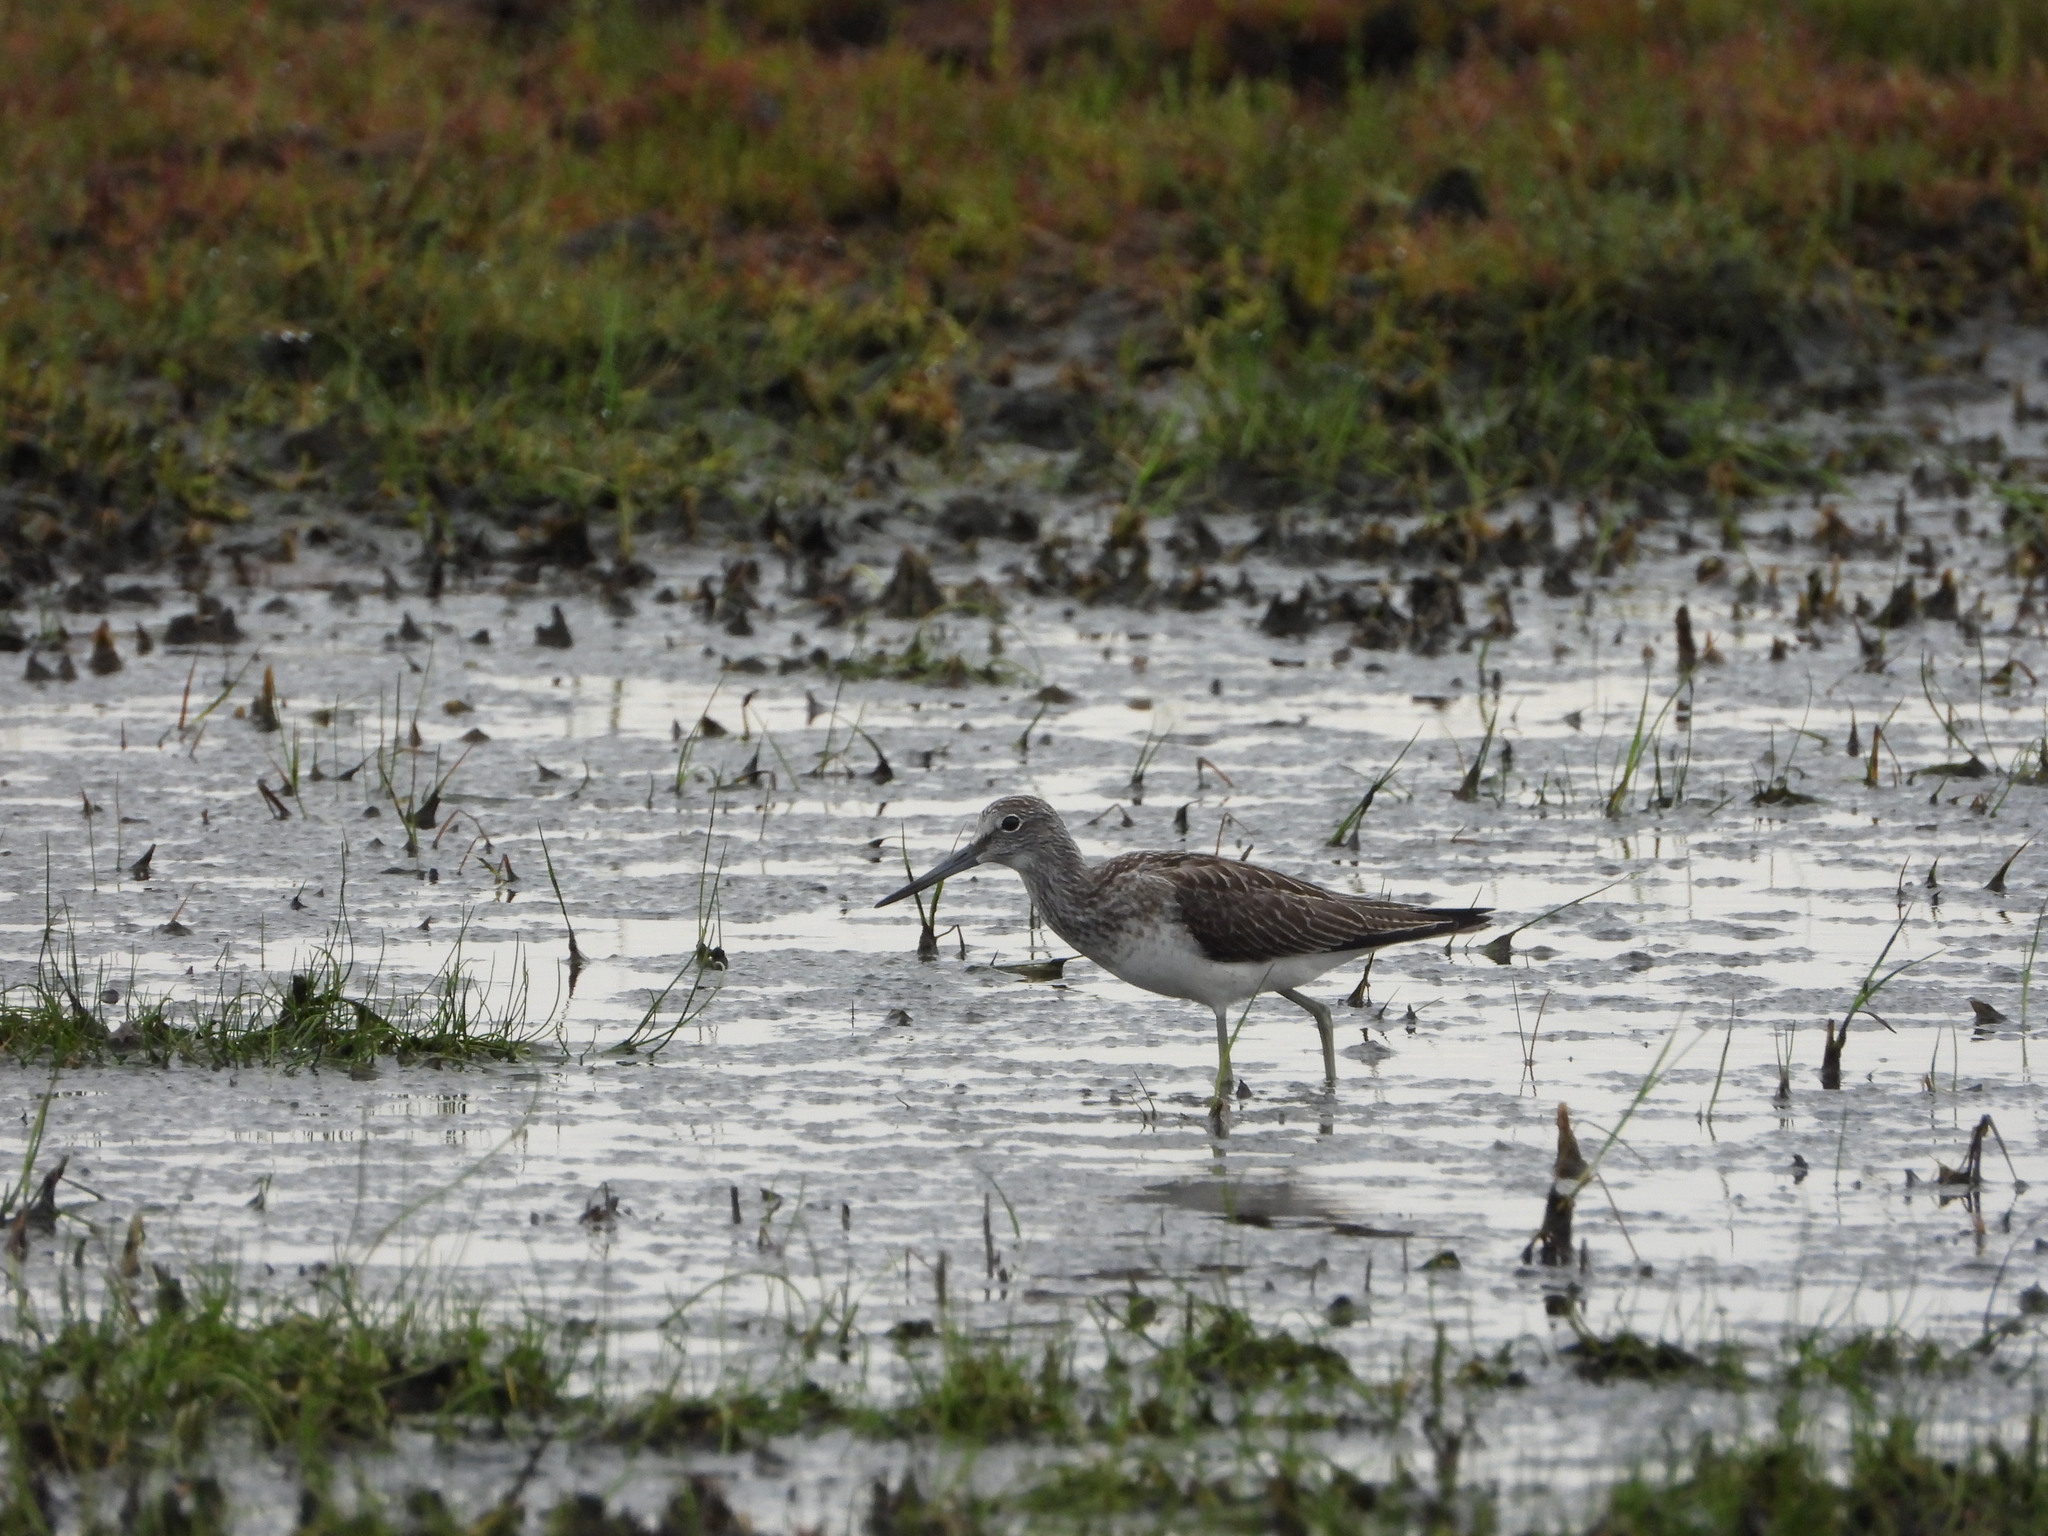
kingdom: Animalia
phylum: Chordata
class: Aves
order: Charadriiformes
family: Scolopacidae
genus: Tringa
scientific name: Tringa nebularia
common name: Common greenshank
